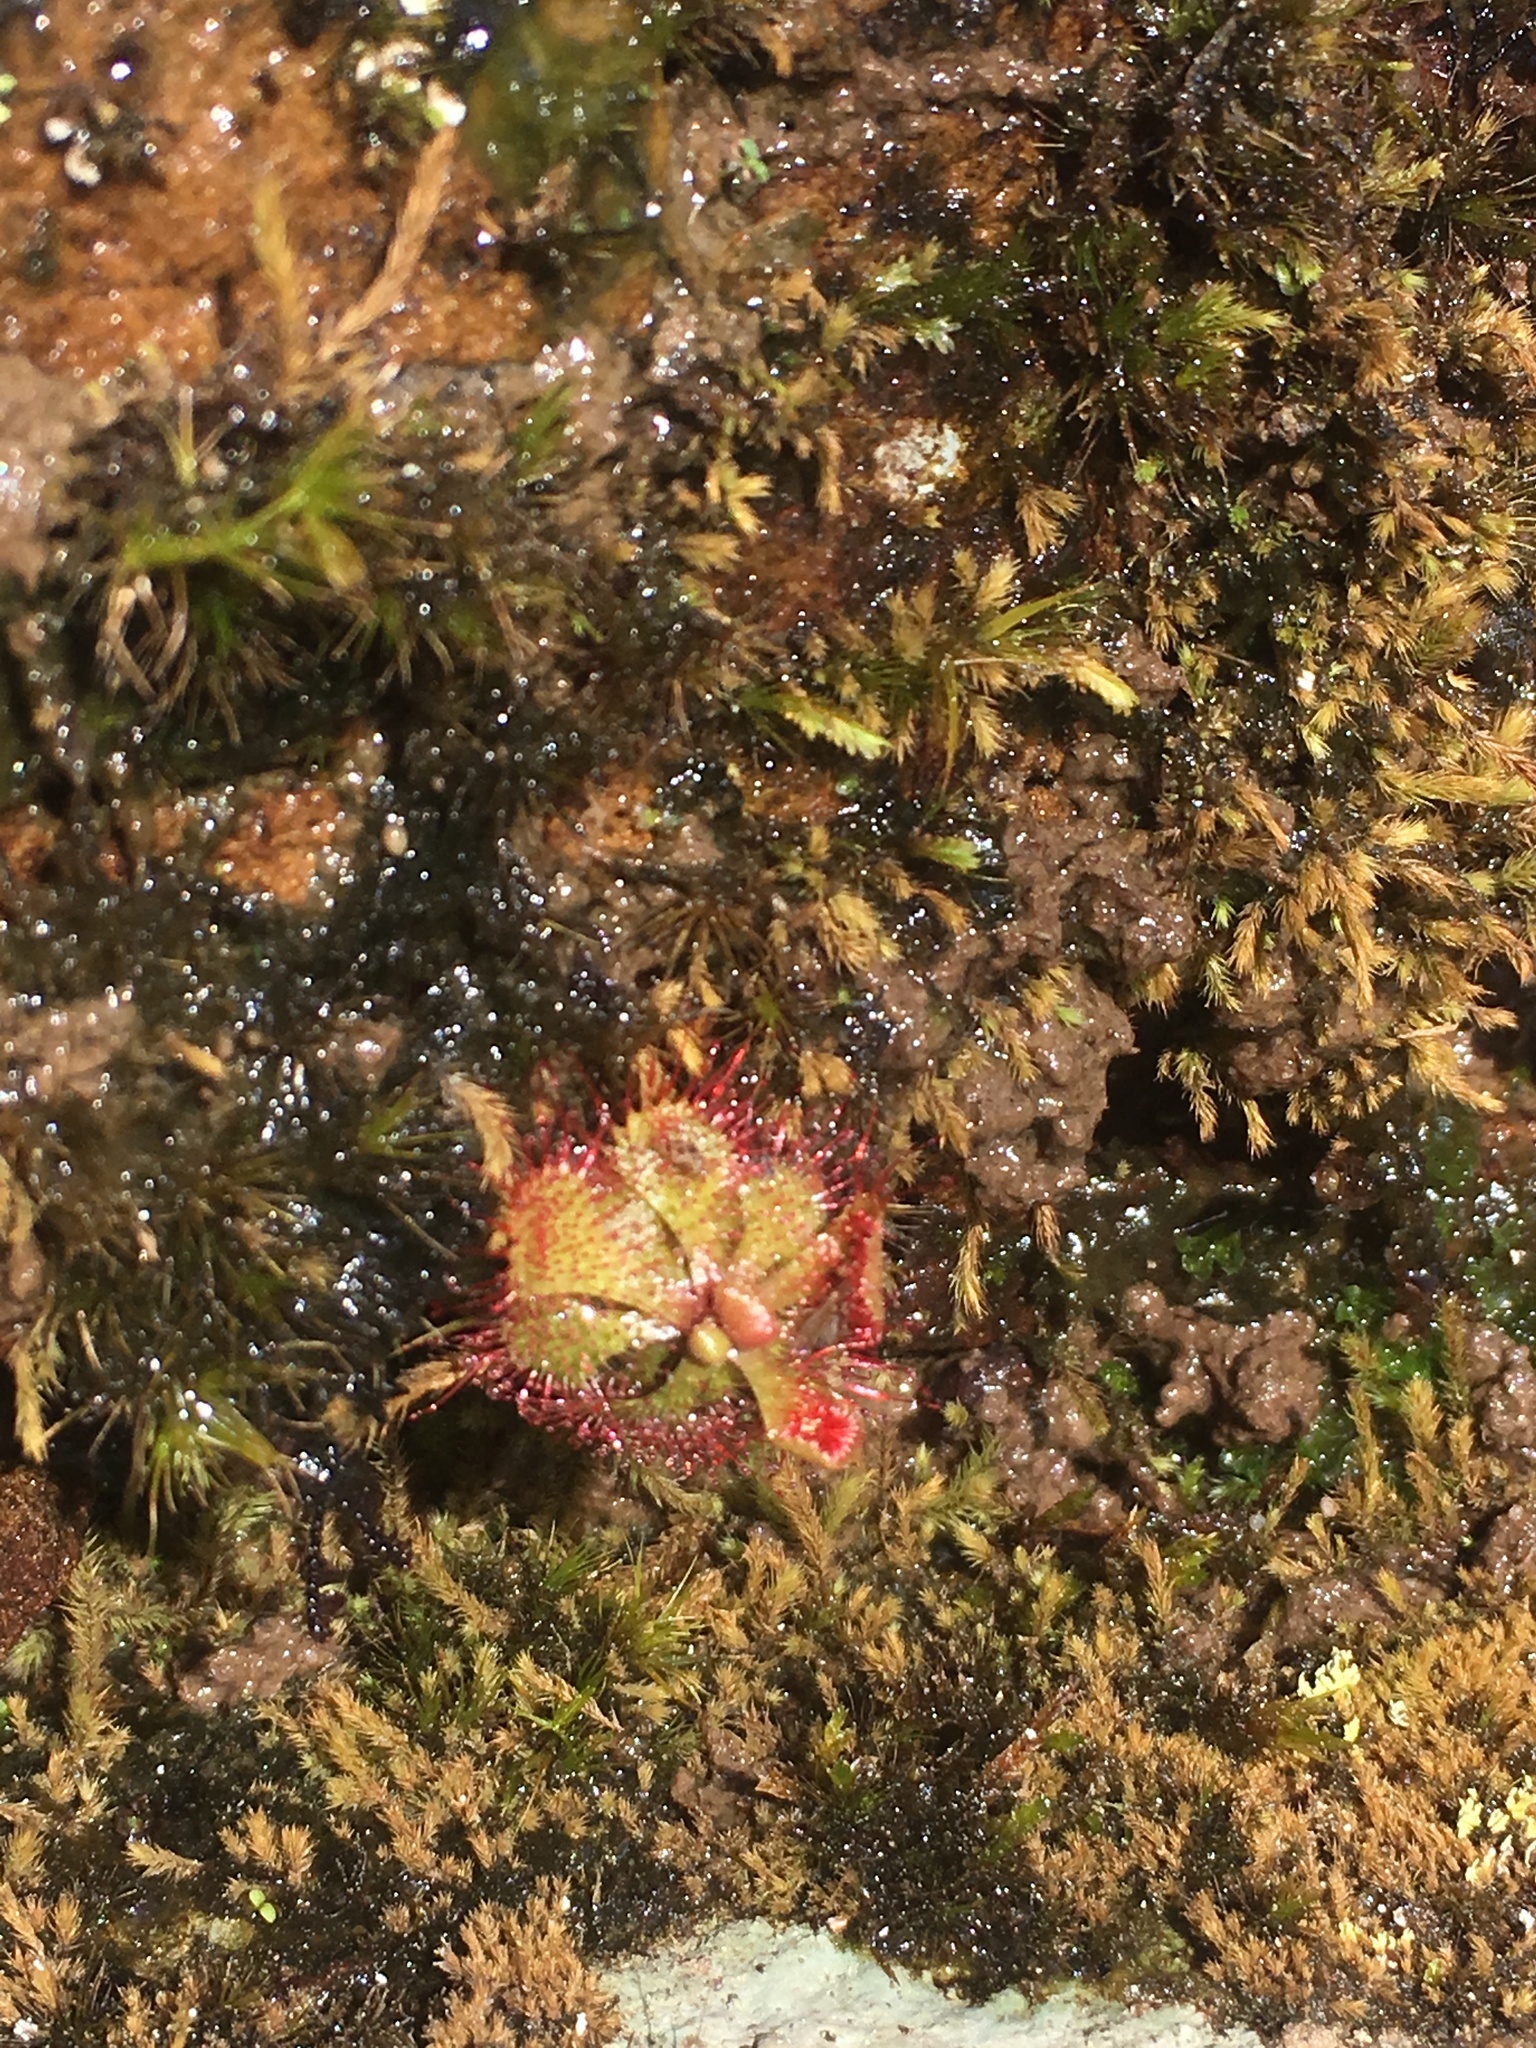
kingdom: Plantae
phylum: Tracheophyta
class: Magnoliopsida
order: Caryophyllales
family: Droseraceae
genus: Drosera
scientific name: Drosera brevifolia
